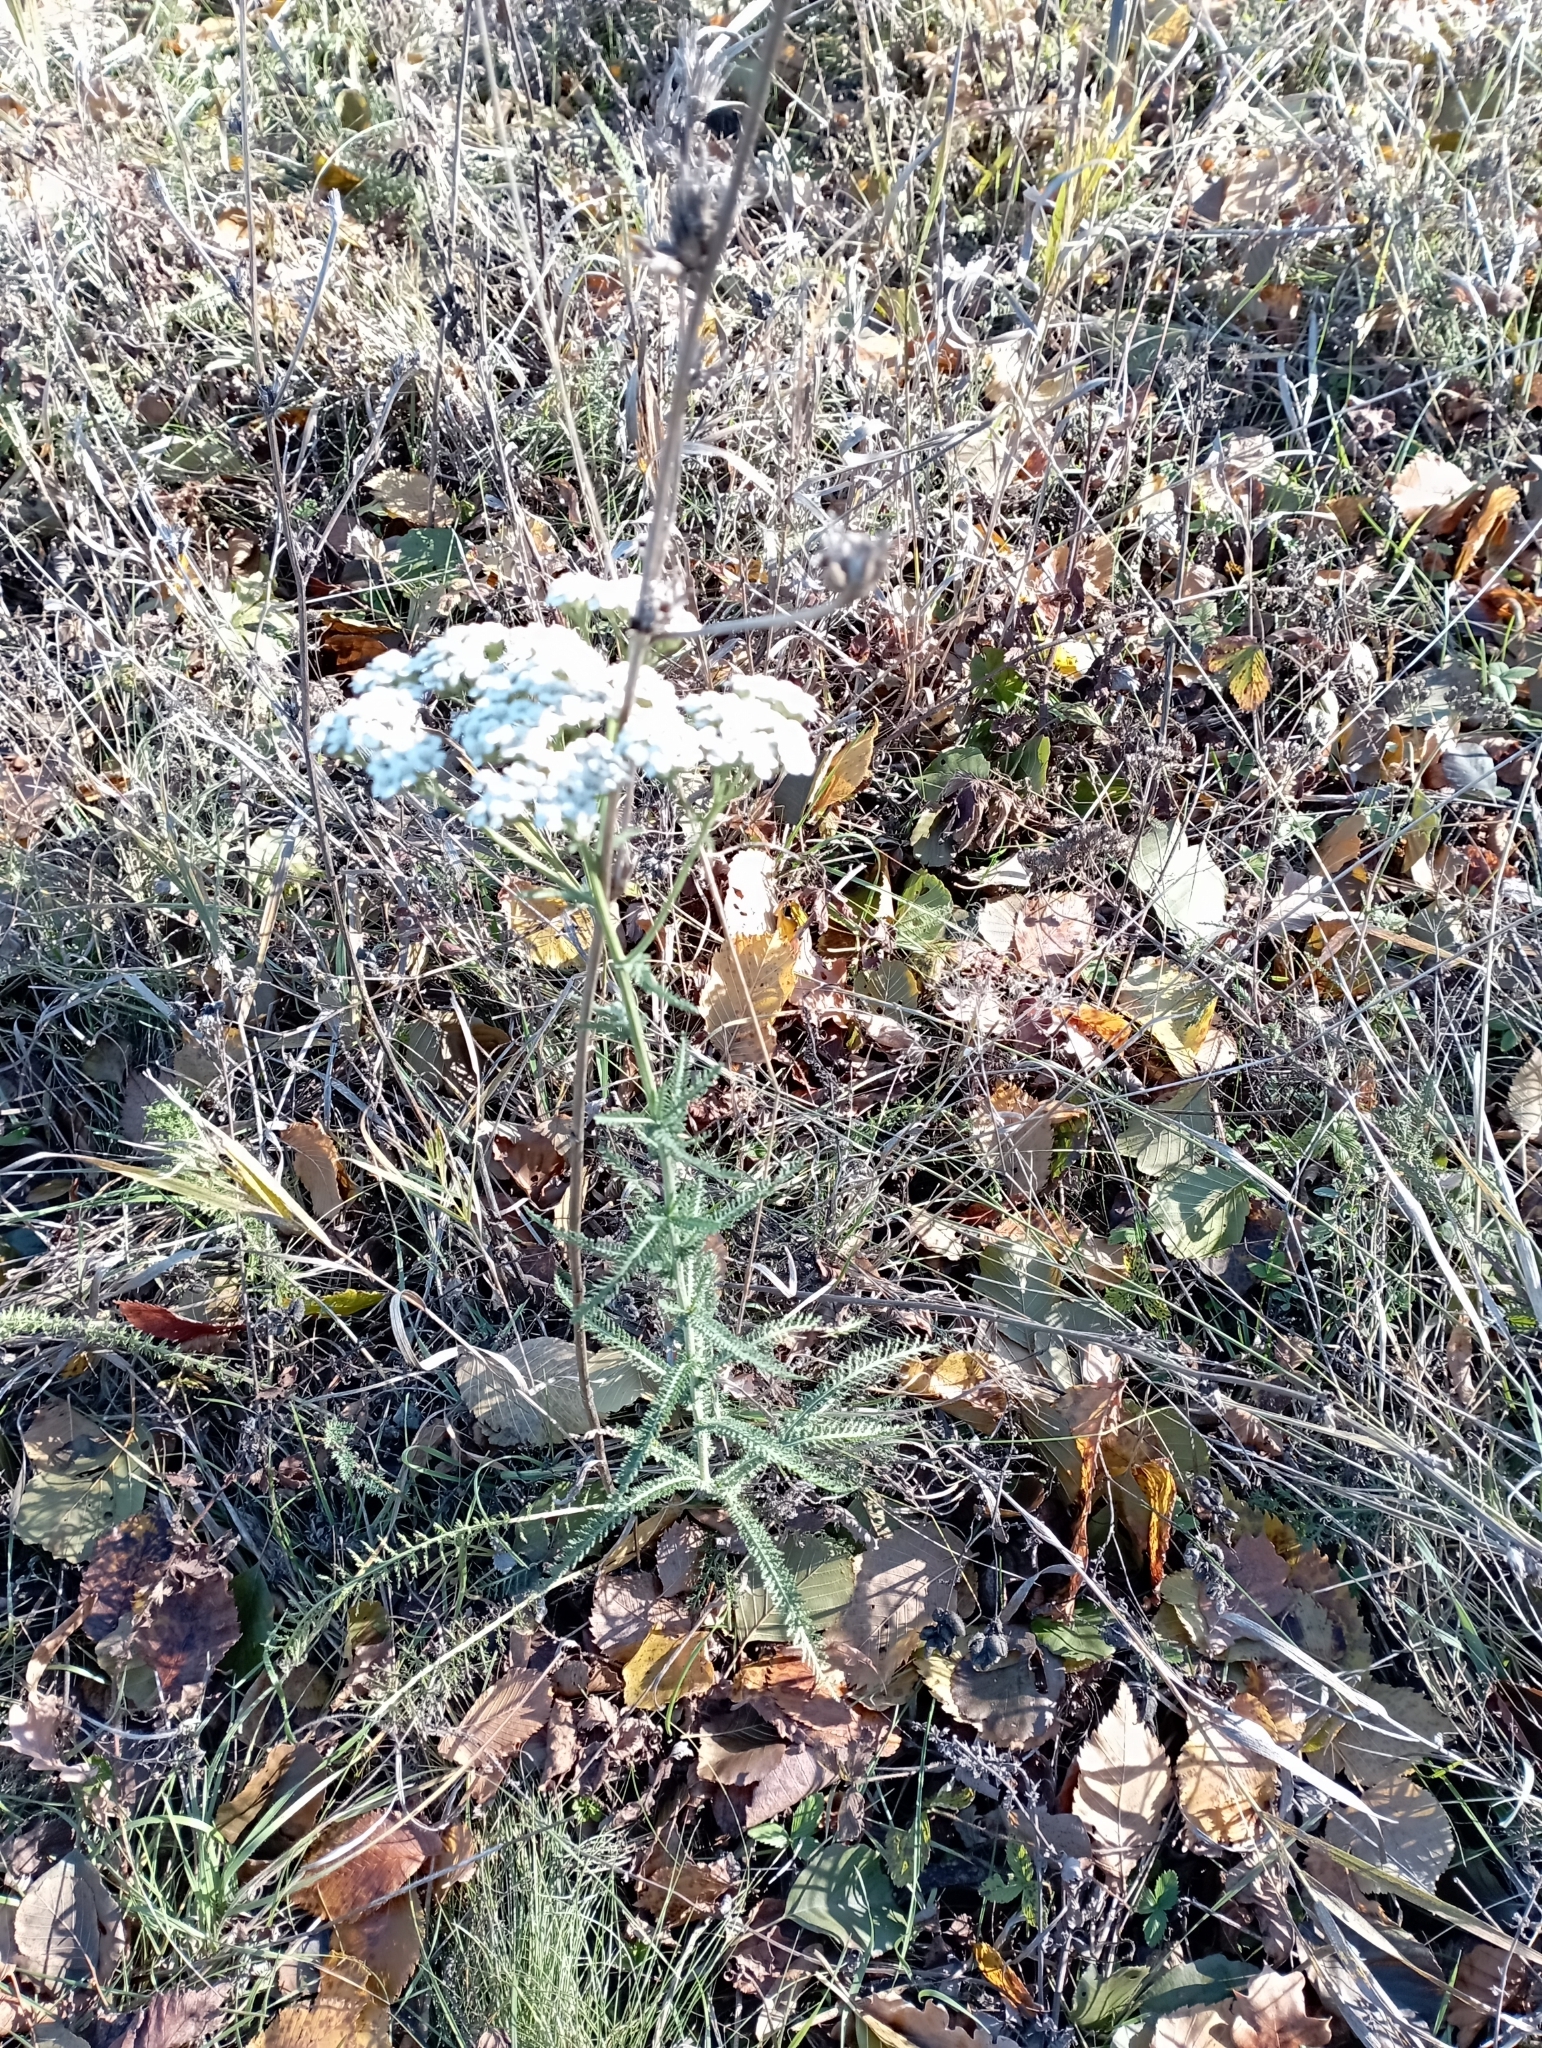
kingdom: Plantae
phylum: Tracheophyta
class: Magnoliopsida
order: Asterales
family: Asteraceae
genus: Achillea
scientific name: Achillea millefolium
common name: Yarrow
